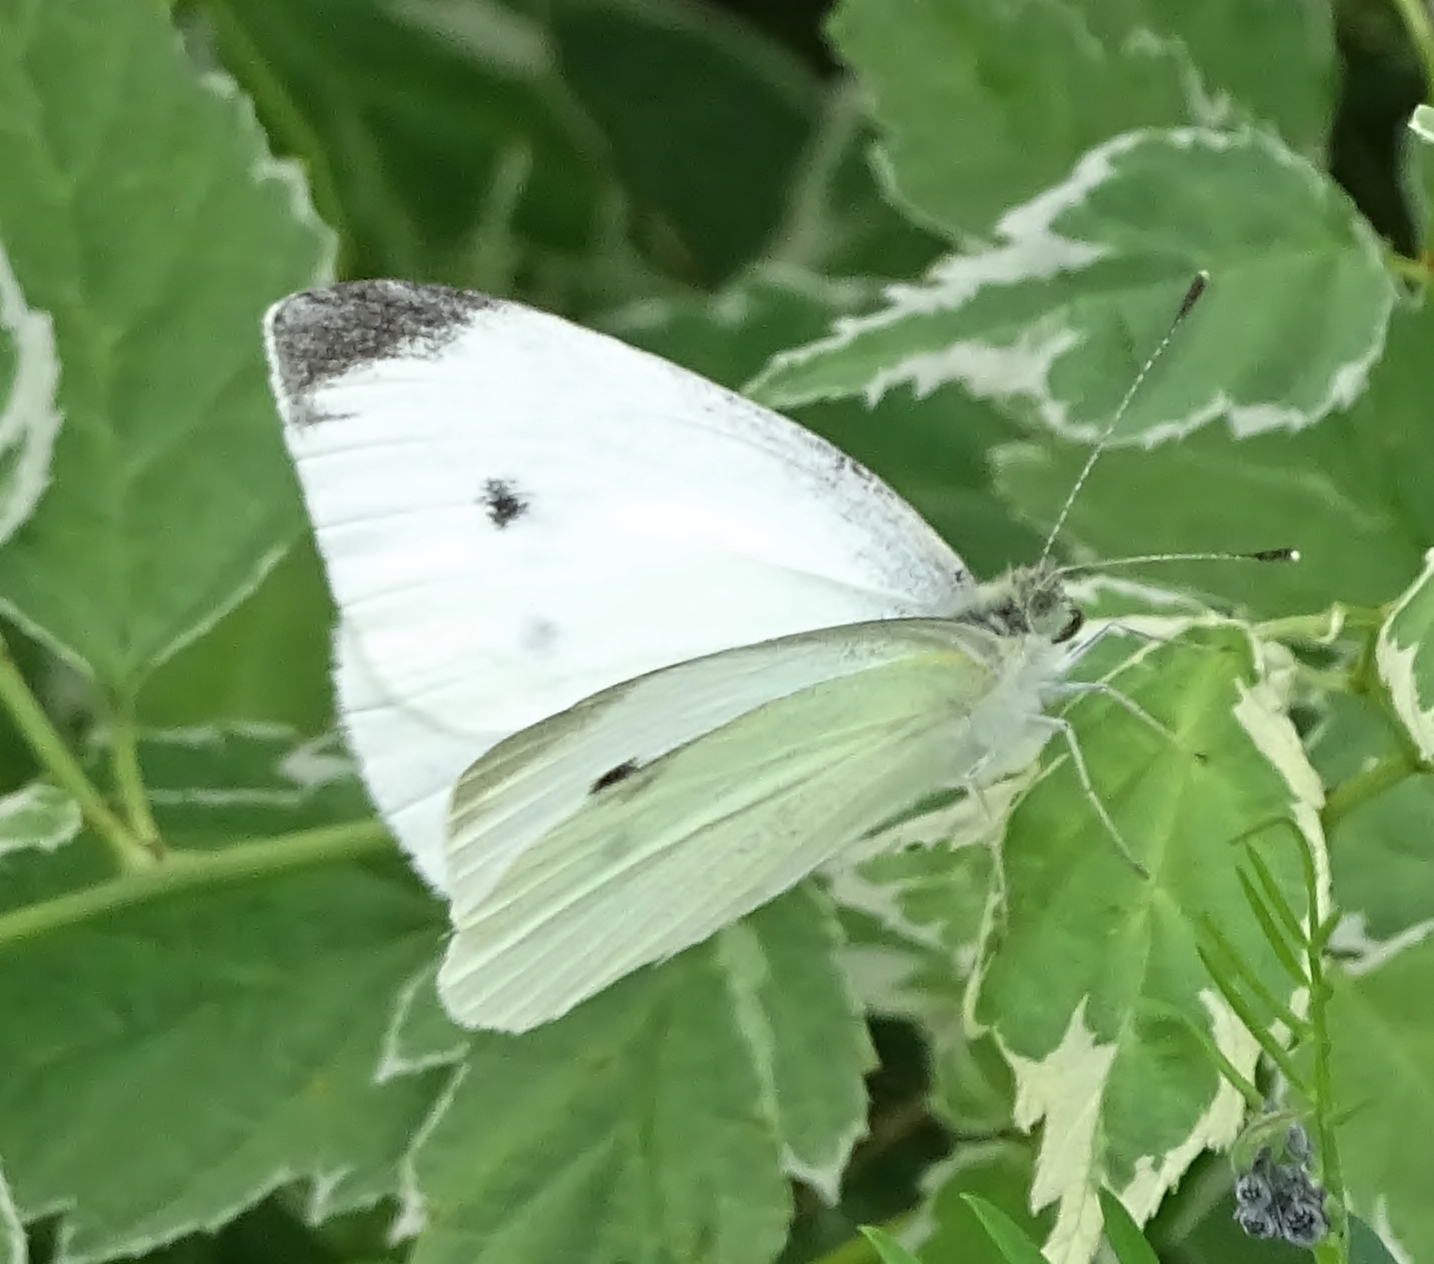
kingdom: Animalia
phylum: Arthropoda
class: Insecta
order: Lepidoptera
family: Pieridae
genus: Pieris
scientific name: Pieris rapae
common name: Small white
